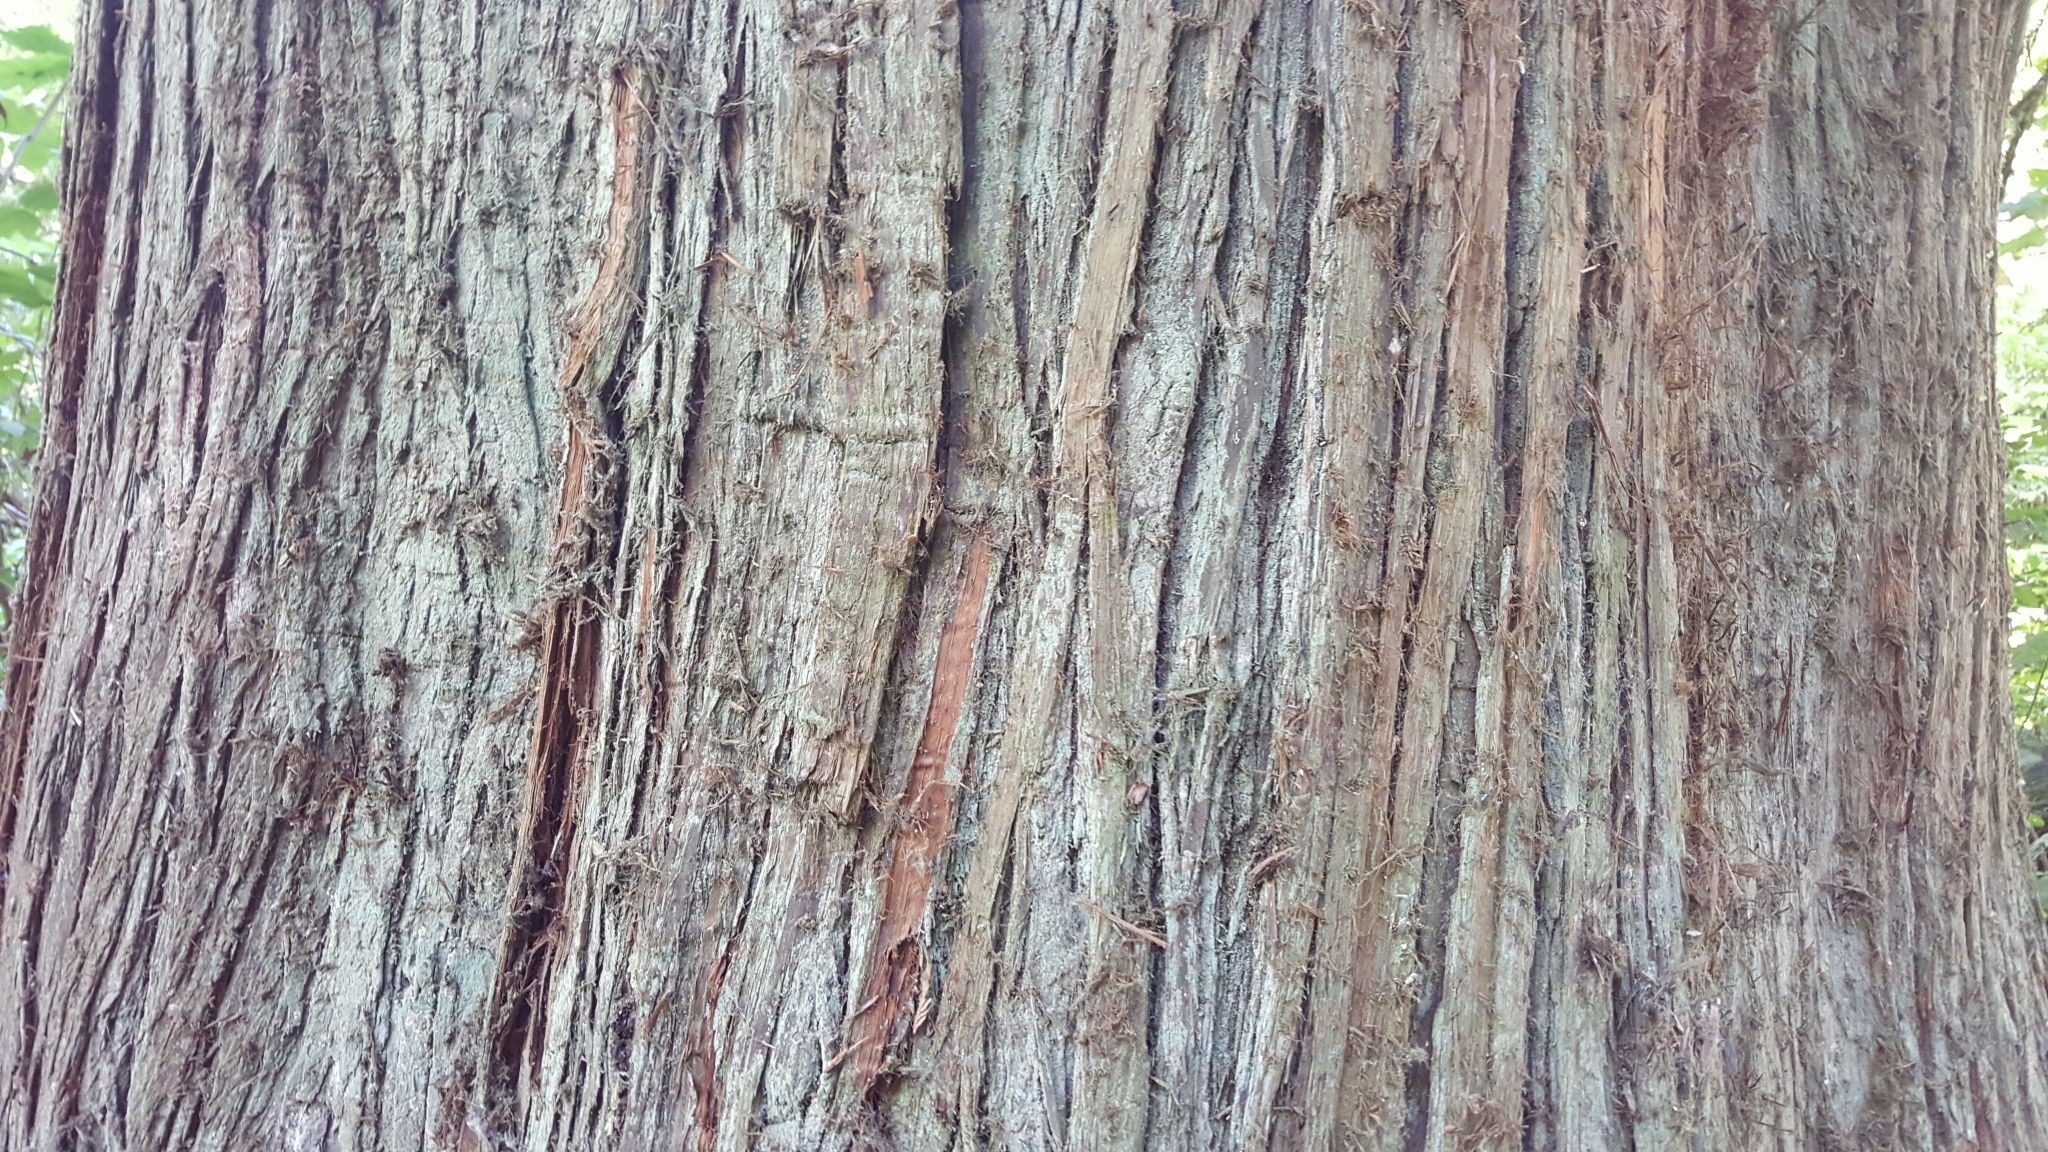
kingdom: Plantae
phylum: Tracheophyta
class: Pinopsida
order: Pinales
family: Cupressaceae
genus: Thuja
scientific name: Thuja plicata
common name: Western red-cedar
